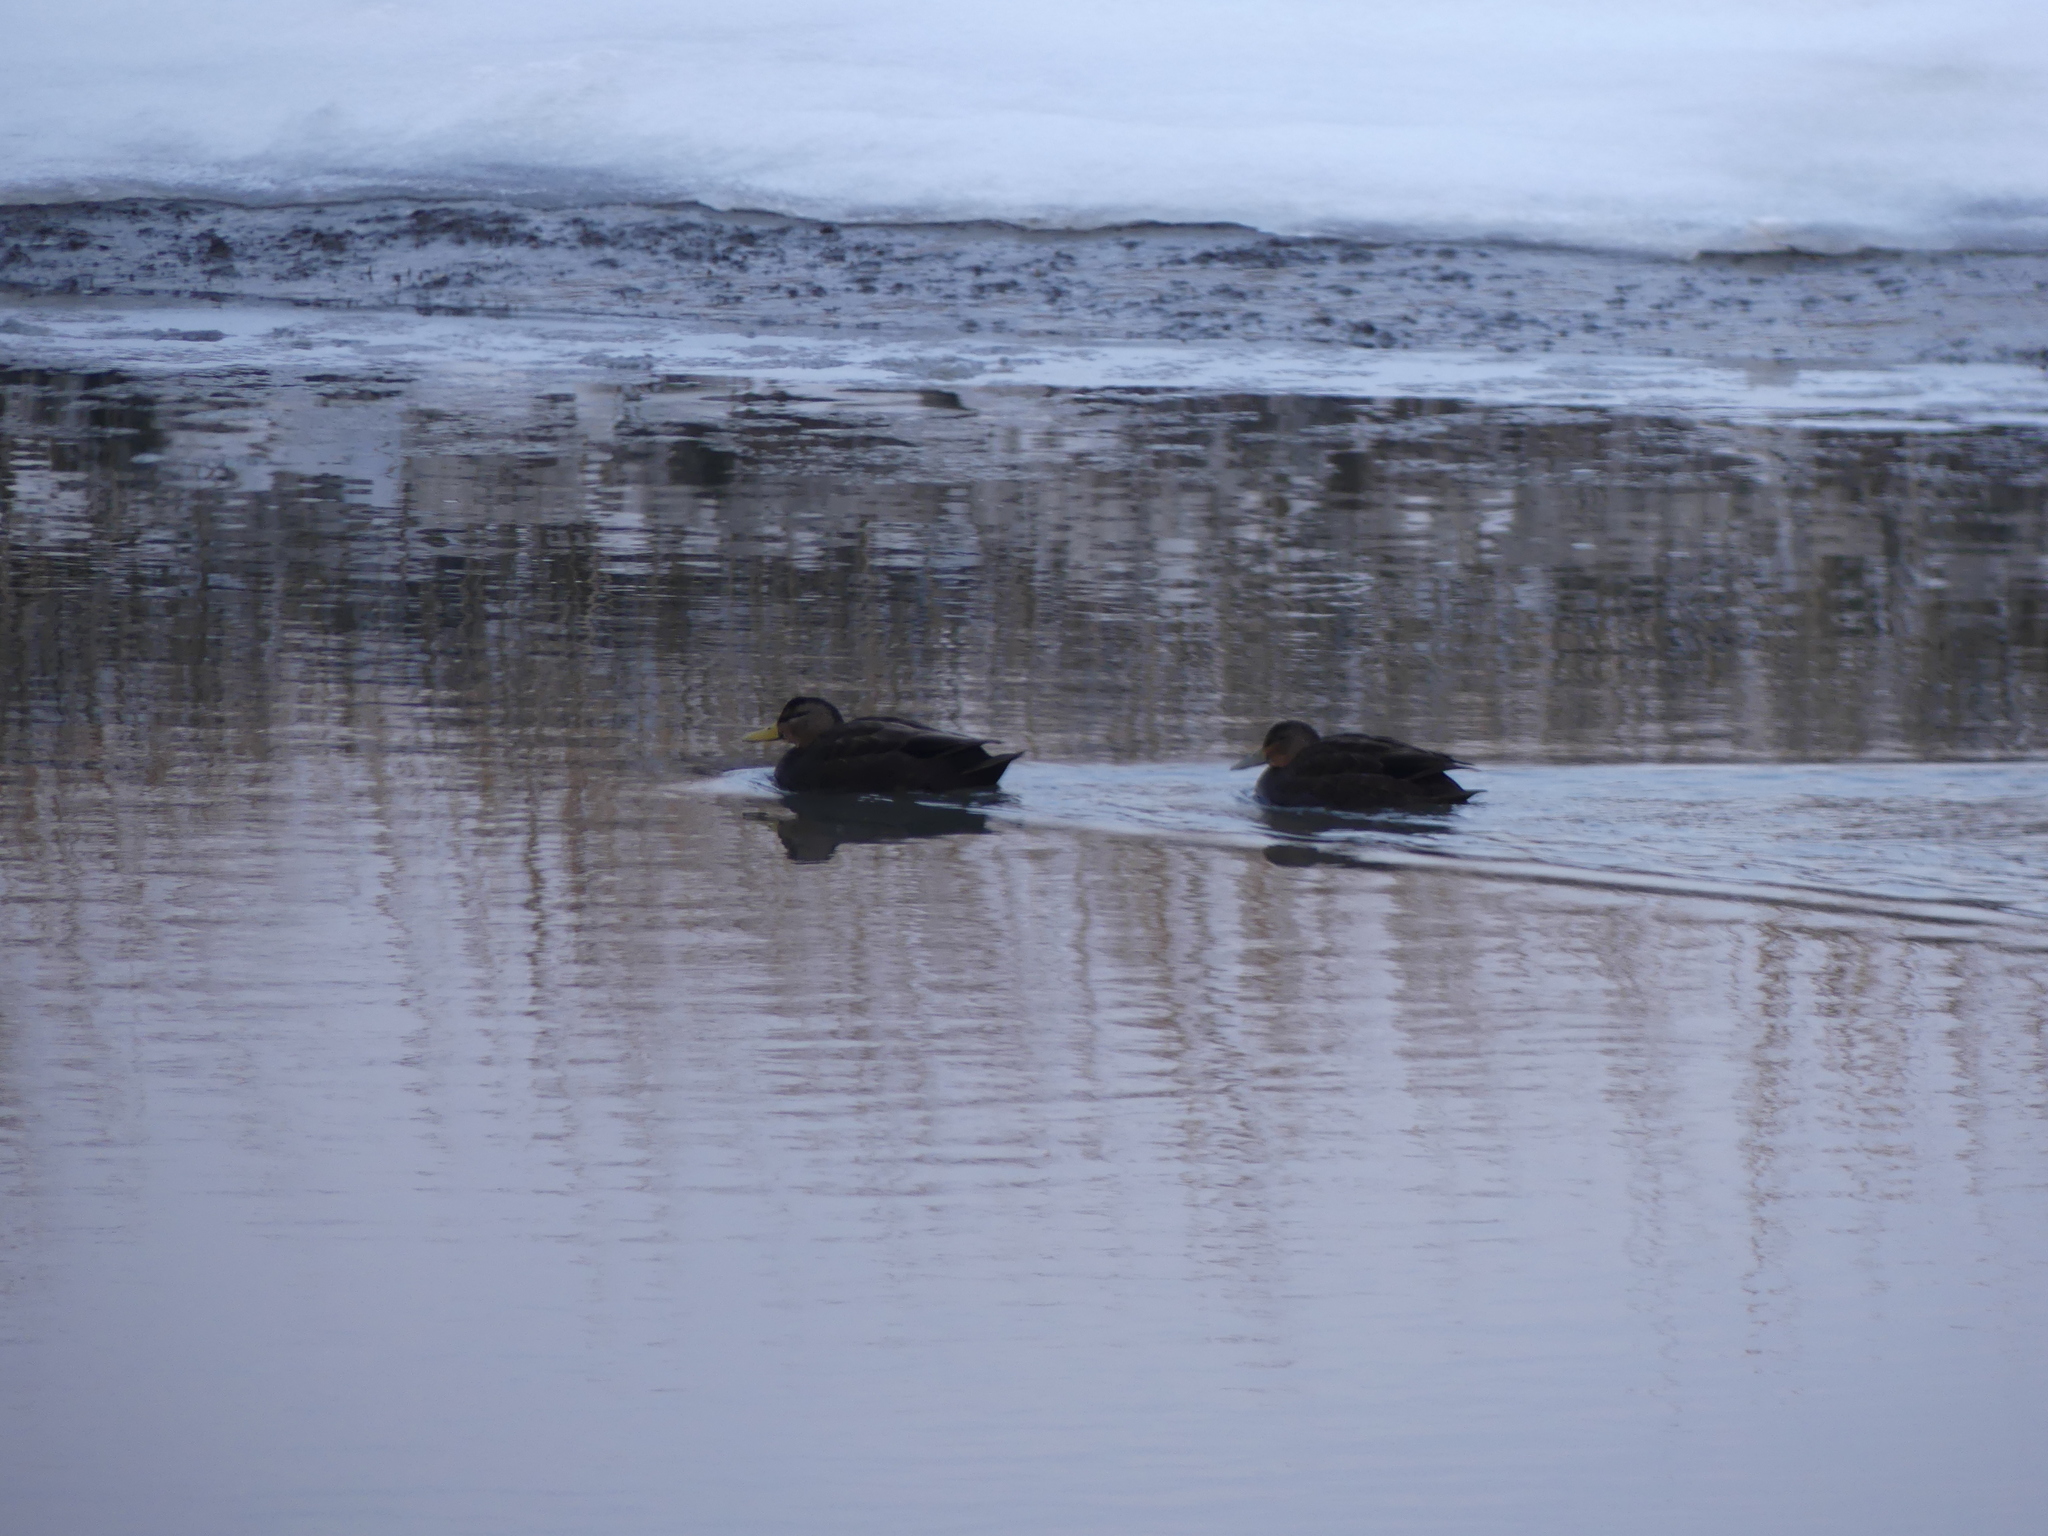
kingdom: Animalia
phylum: Chordata
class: Aves
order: Anseriformes
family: Anatidae
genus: Anas
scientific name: Anas rubripes
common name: American black duck
